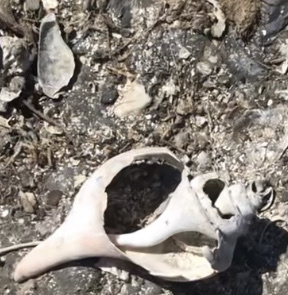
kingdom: Animalia
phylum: Mollusca
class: Gastropoda
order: Neogastropoda
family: Busyconidae
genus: Busycotypus
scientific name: Busycotypus canaliculatus
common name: Channeled whelk
